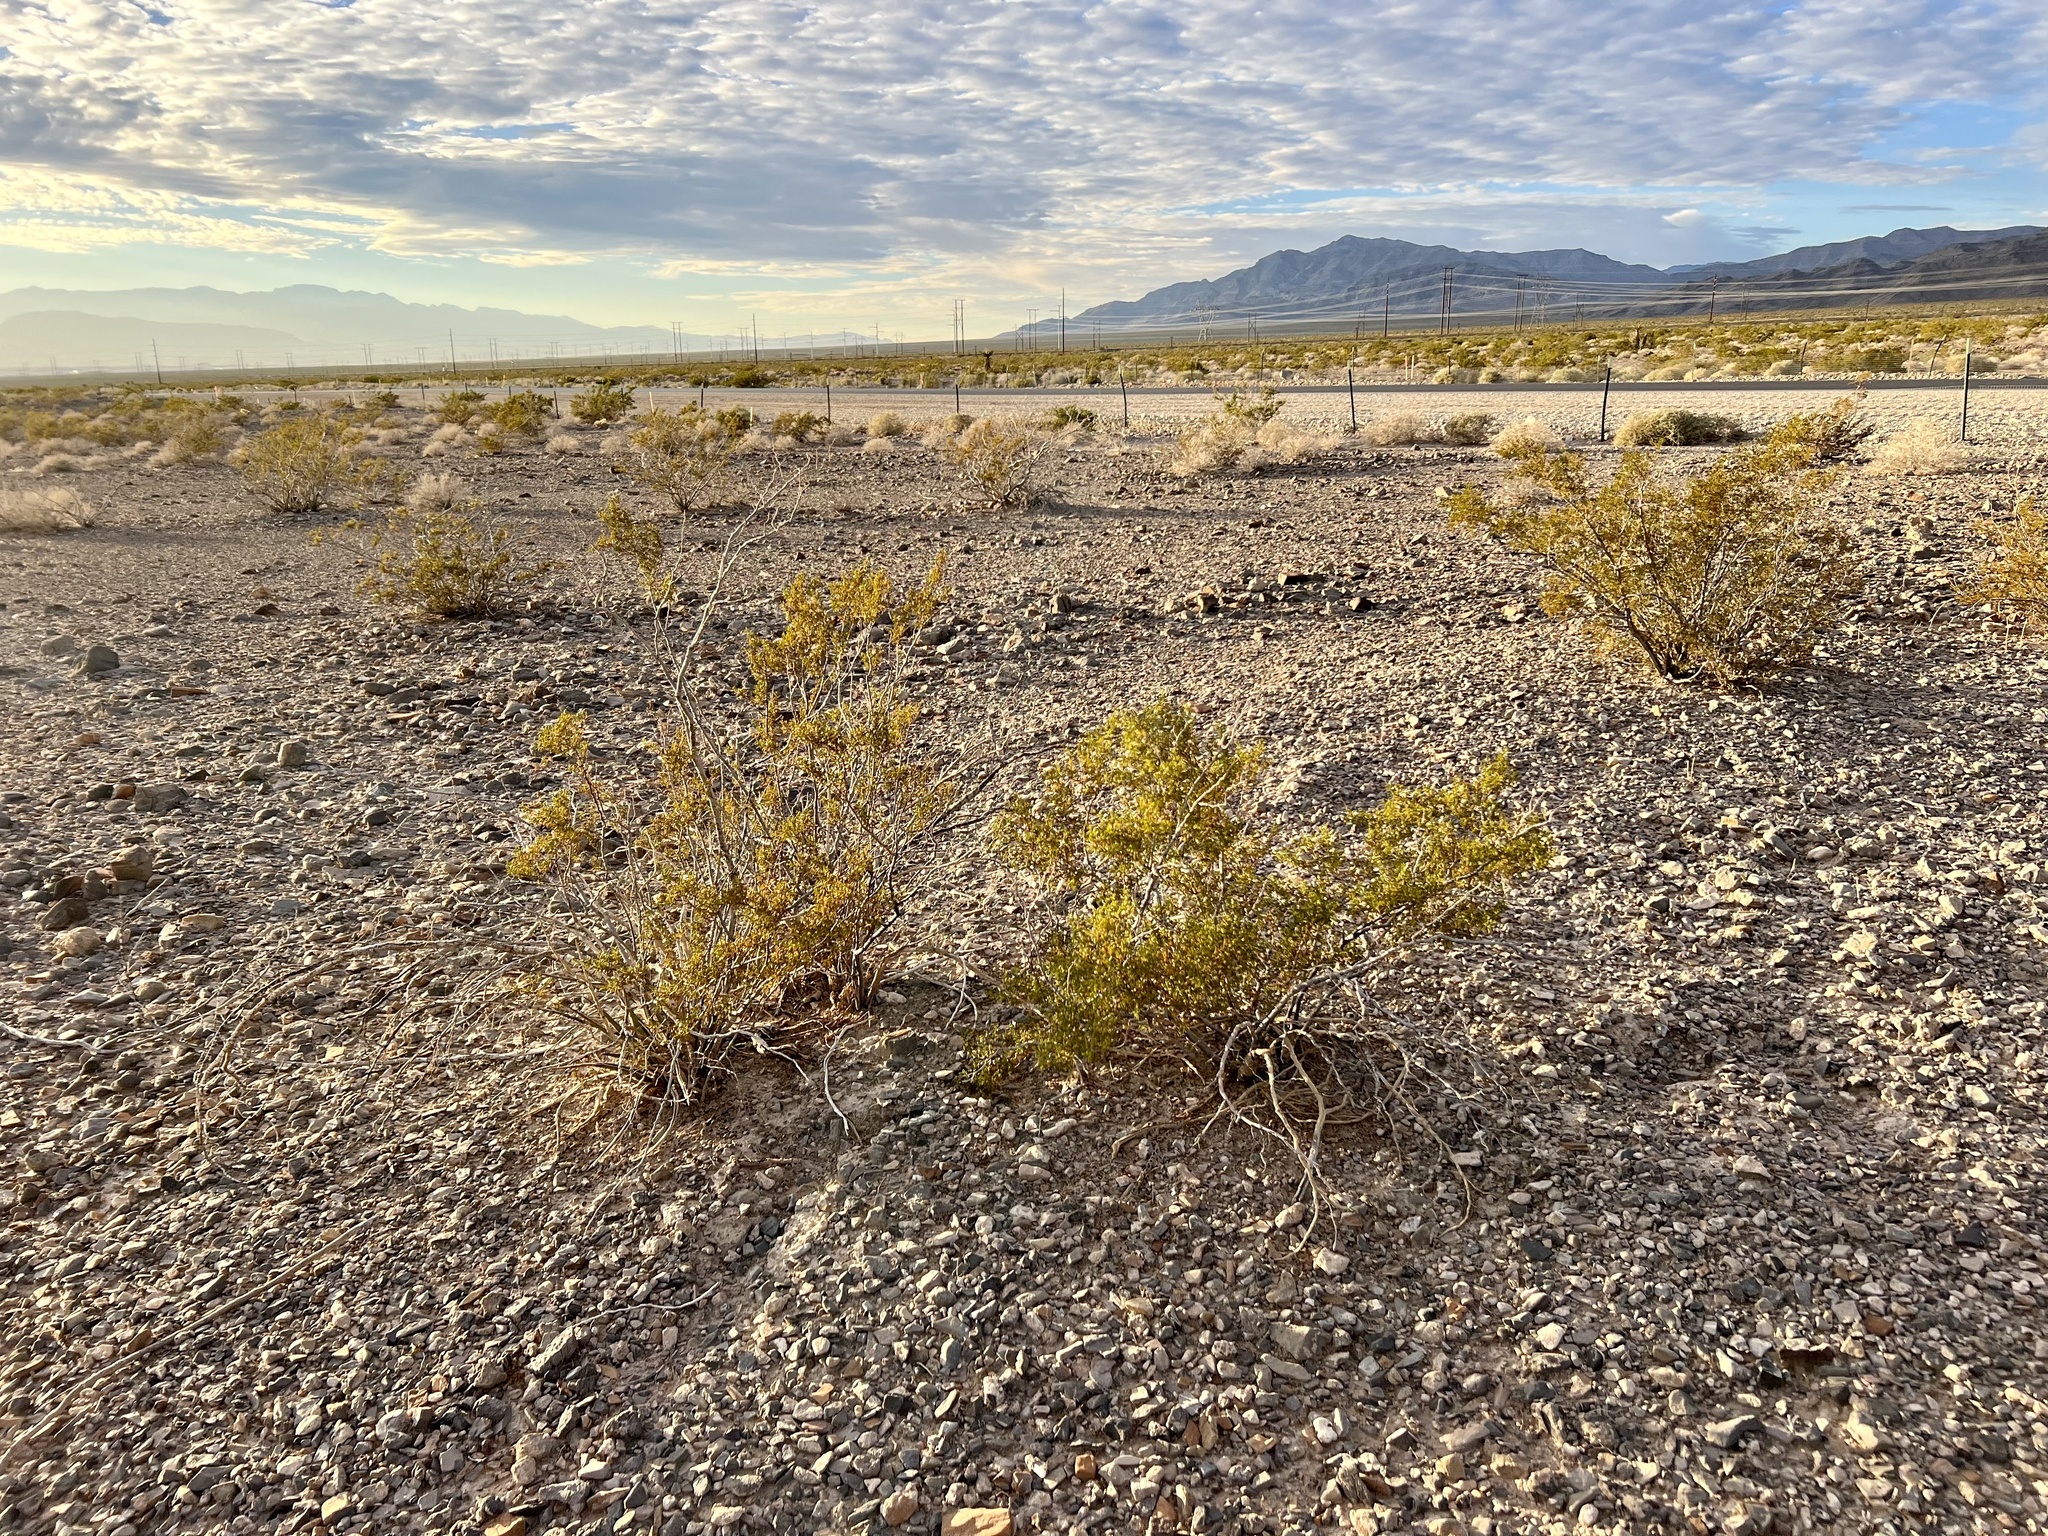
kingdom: Plantae
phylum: Tracheophyta
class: Magnoliopsida
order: Zygophyllales
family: Zygophyllaceae
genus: Larrea
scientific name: Larrea tridentata
